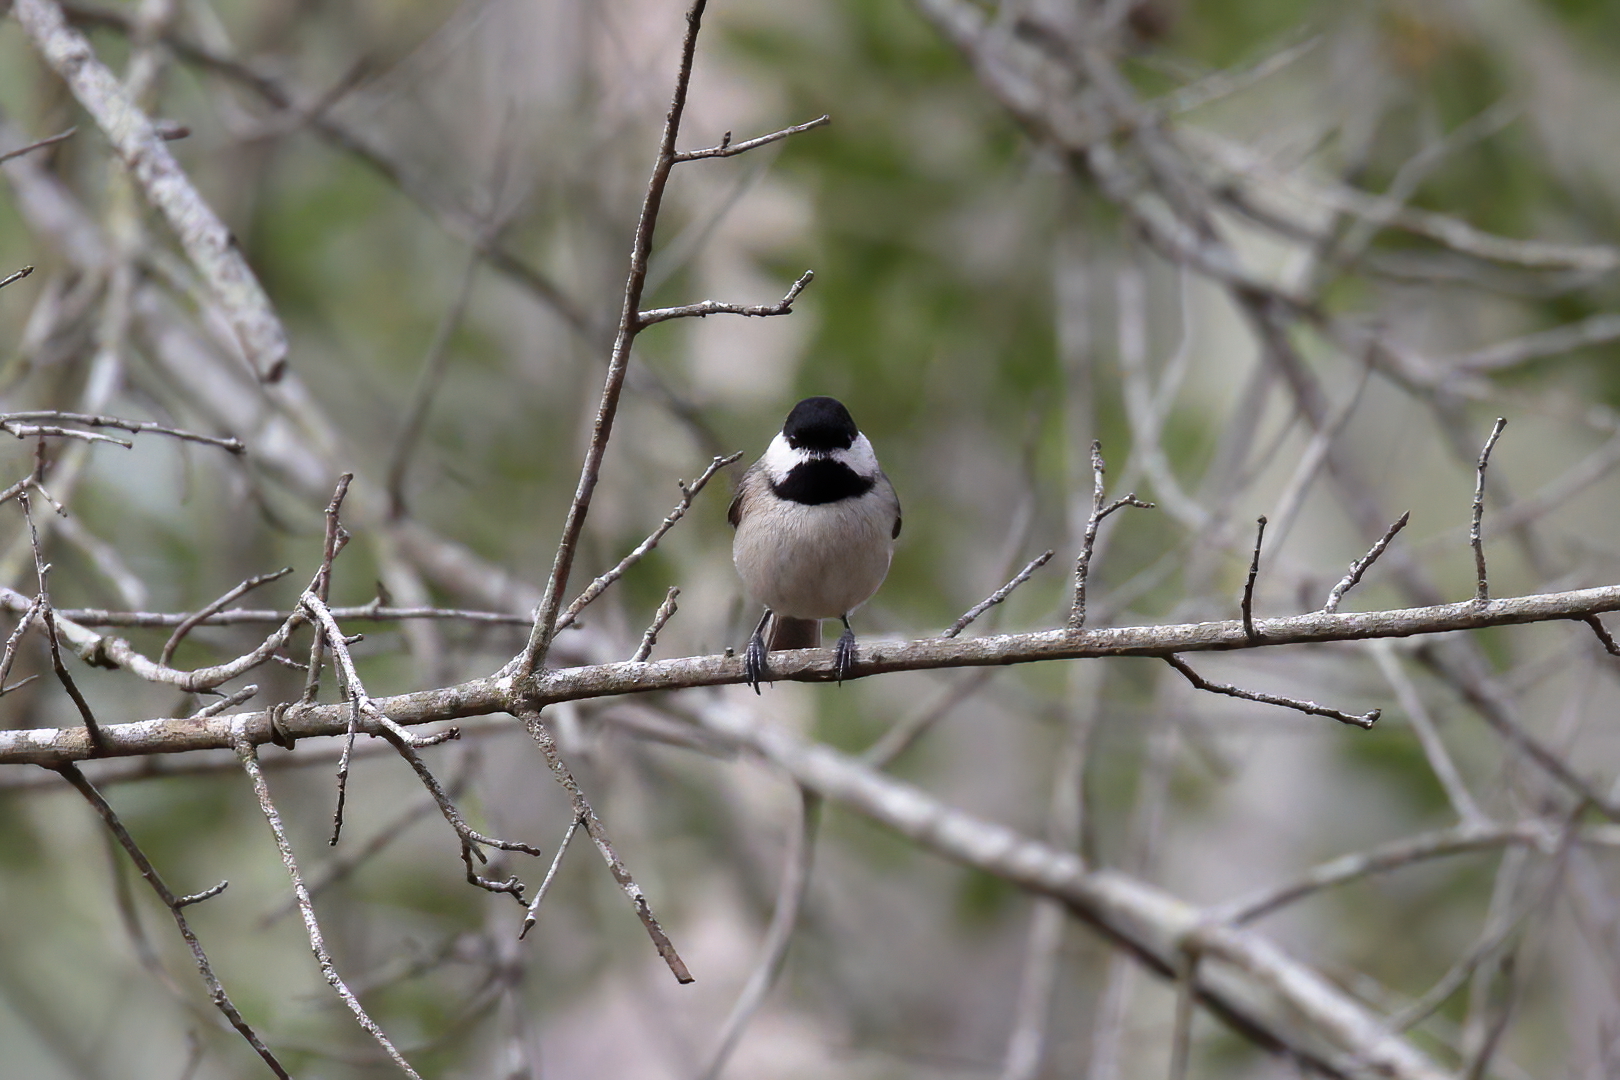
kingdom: Animalia
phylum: Chordata
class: Aves
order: Passeriformes
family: Paridae
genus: Poecile
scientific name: Poecile carolinensis
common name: Carolina chickadee
